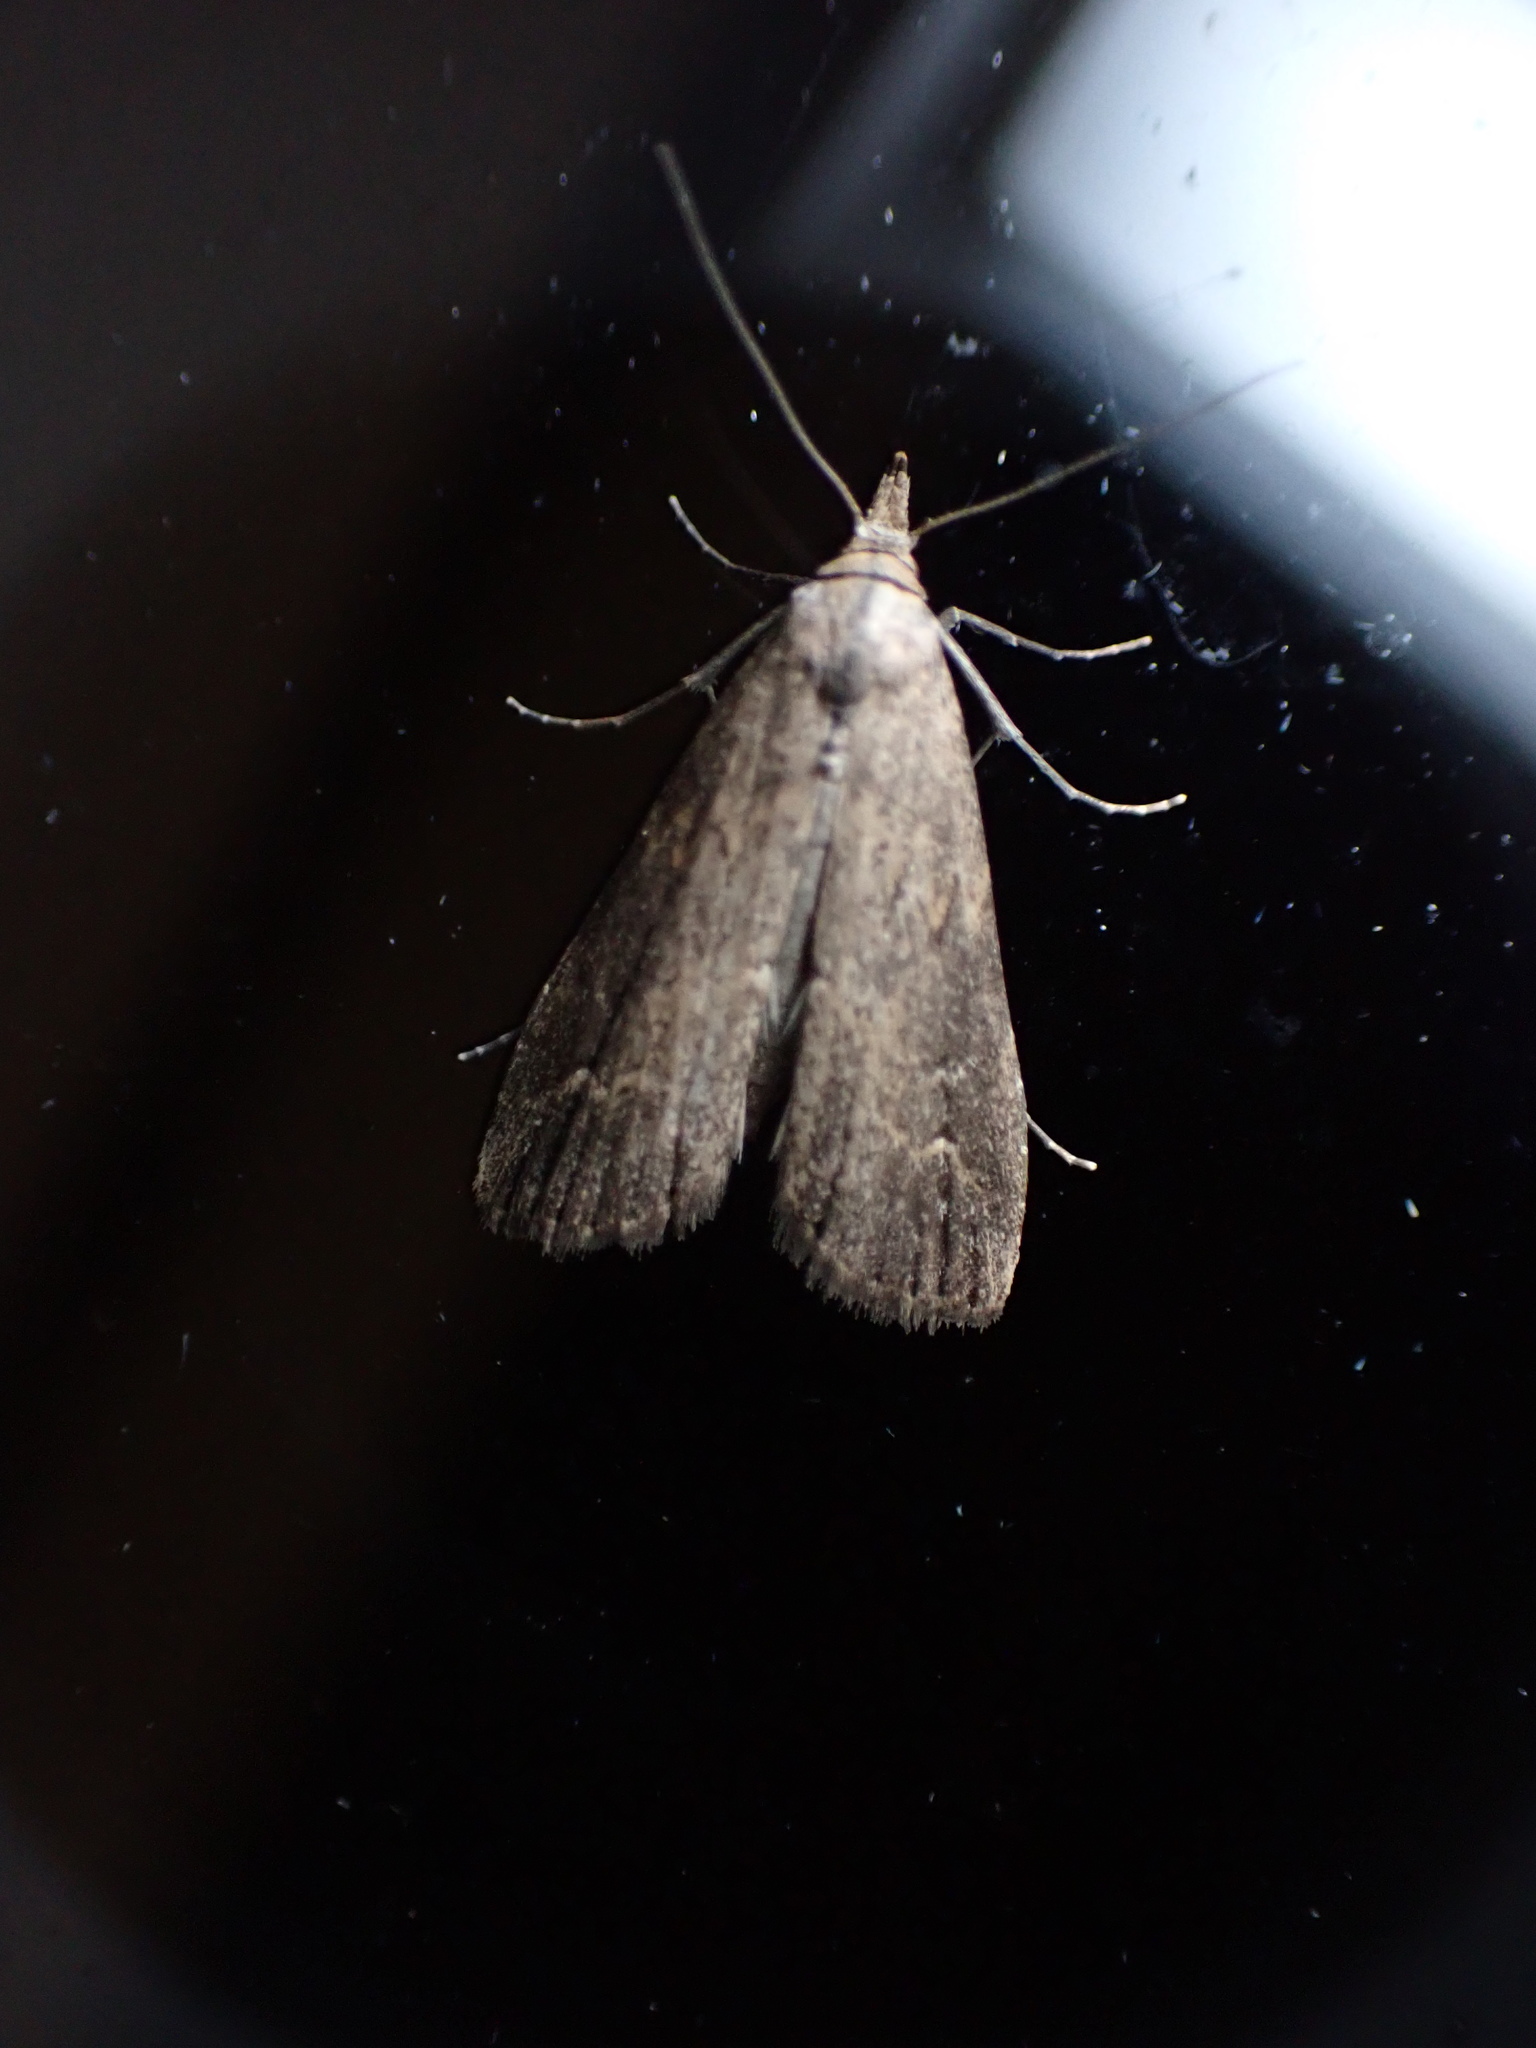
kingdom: Animalia
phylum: Arthropoda
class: Insecta
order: Lepidoptera
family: Erebidae
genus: Schrankia
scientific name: Schrankia costaestrigalis
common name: Pinion-streaked snout
